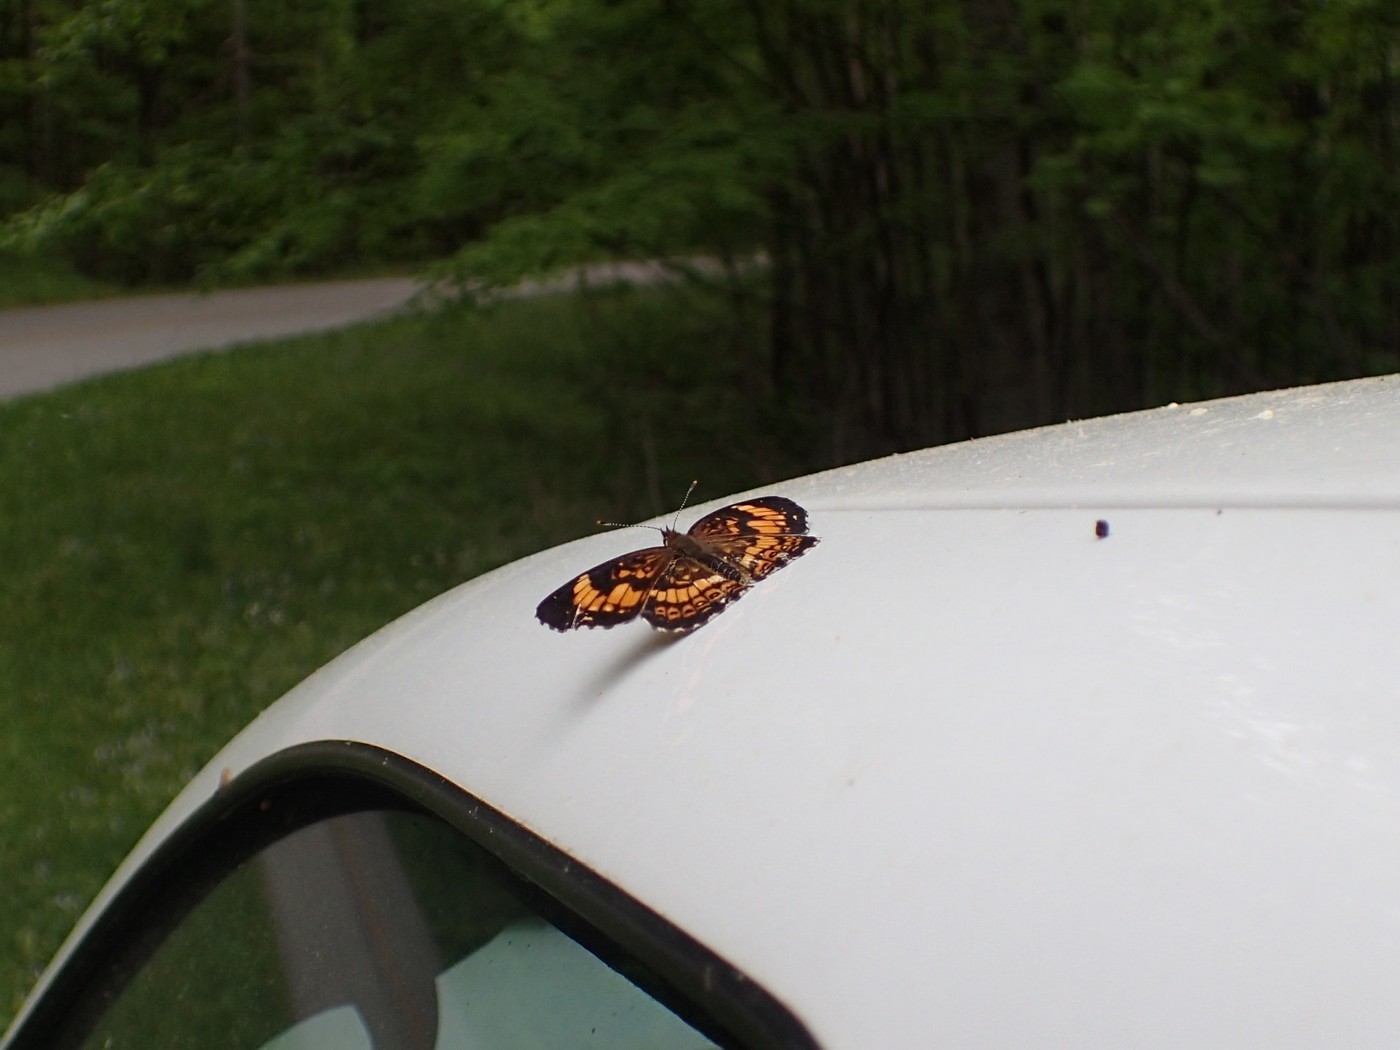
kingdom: Animalia
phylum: Arthropoda
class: Insecta
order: Lepidoptera
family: Nymphalidae
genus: Chlosyne
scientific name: Chlosyne nycteis
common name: Silvery checkerspot
